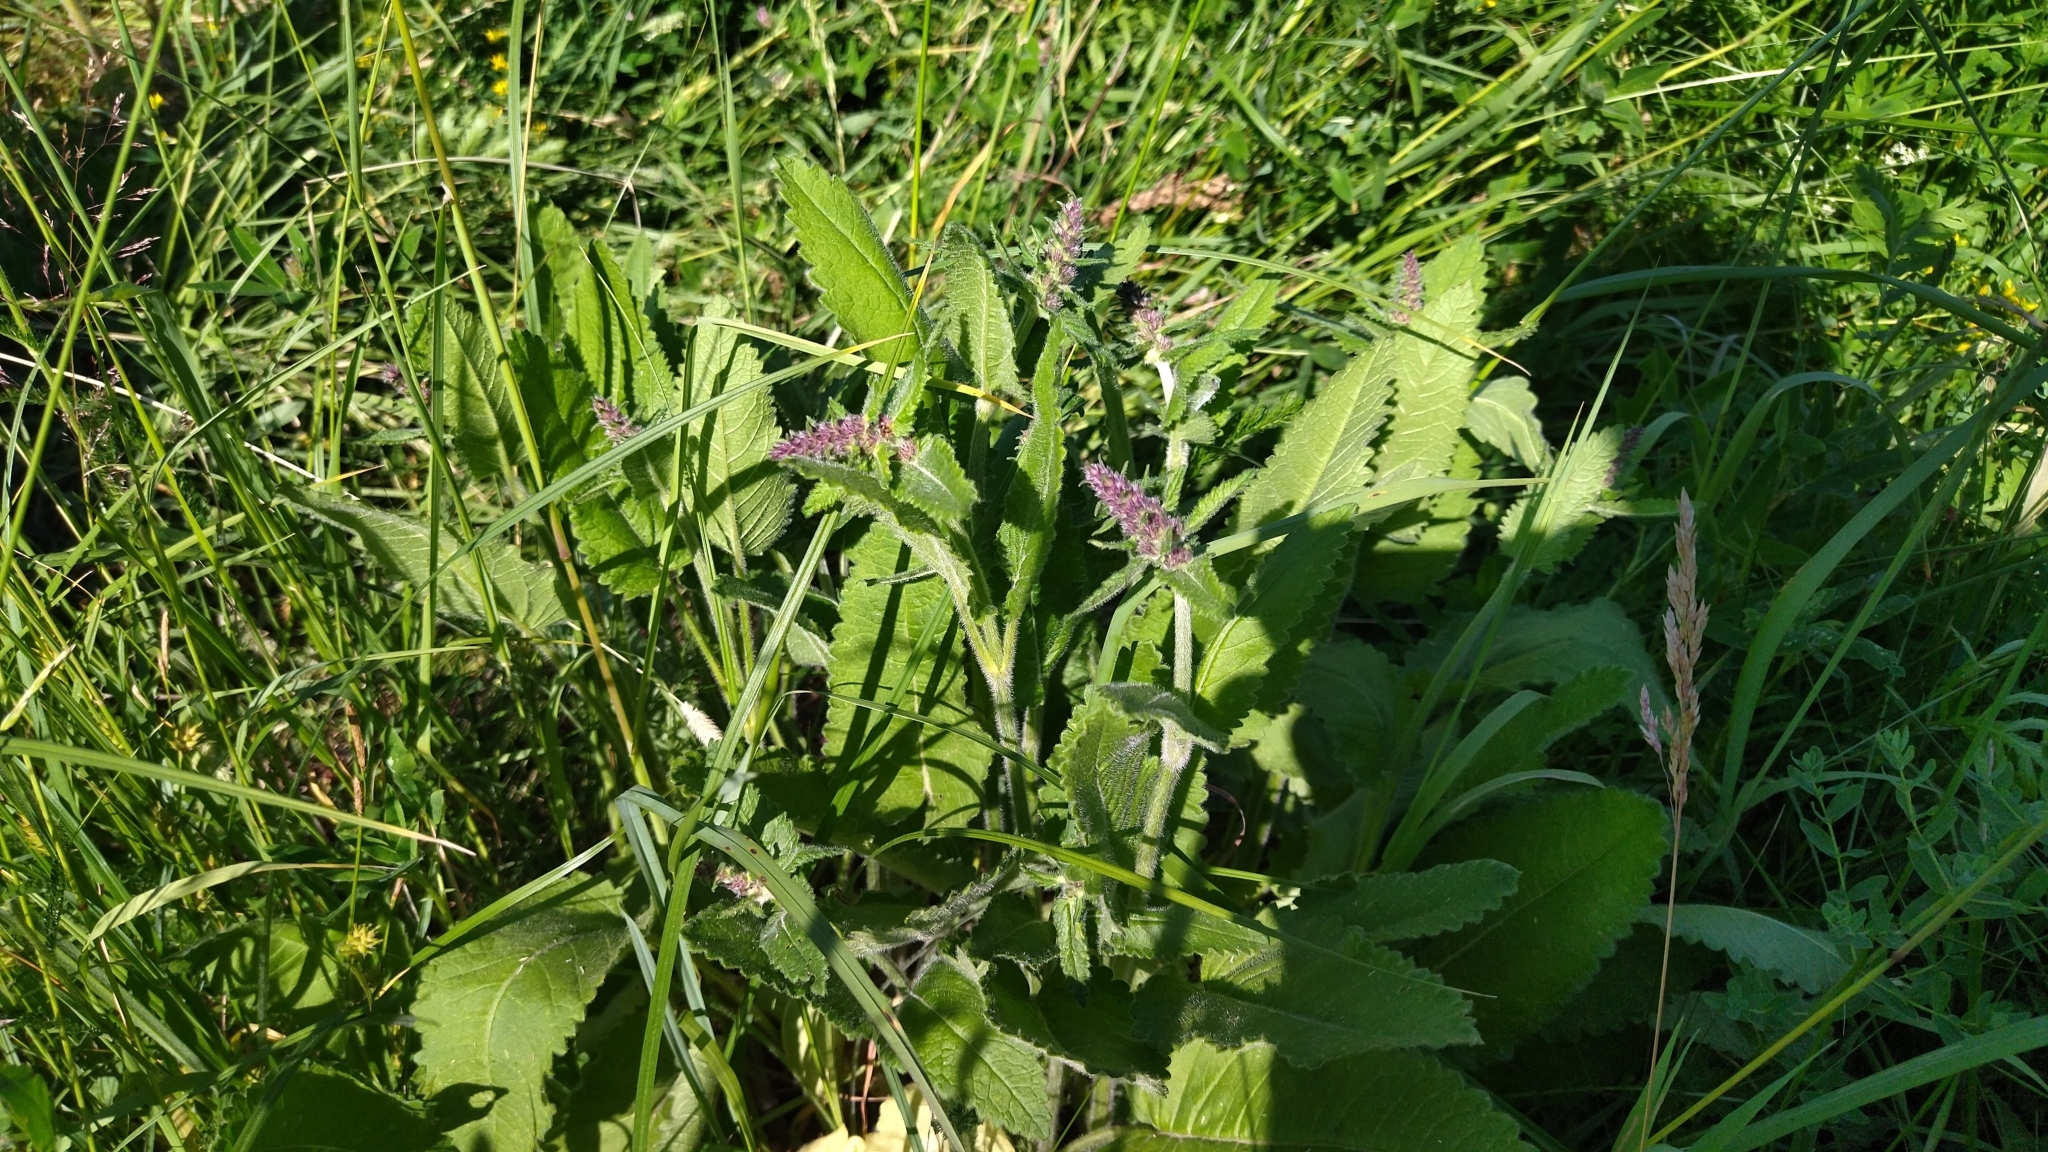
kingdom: Plantae
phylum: Tracheophyta
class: Magnoliopsida
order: Lamiales
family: Lamiaceae
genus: Betonica
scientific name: Betonica officinalis
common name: Bishop's-wort
